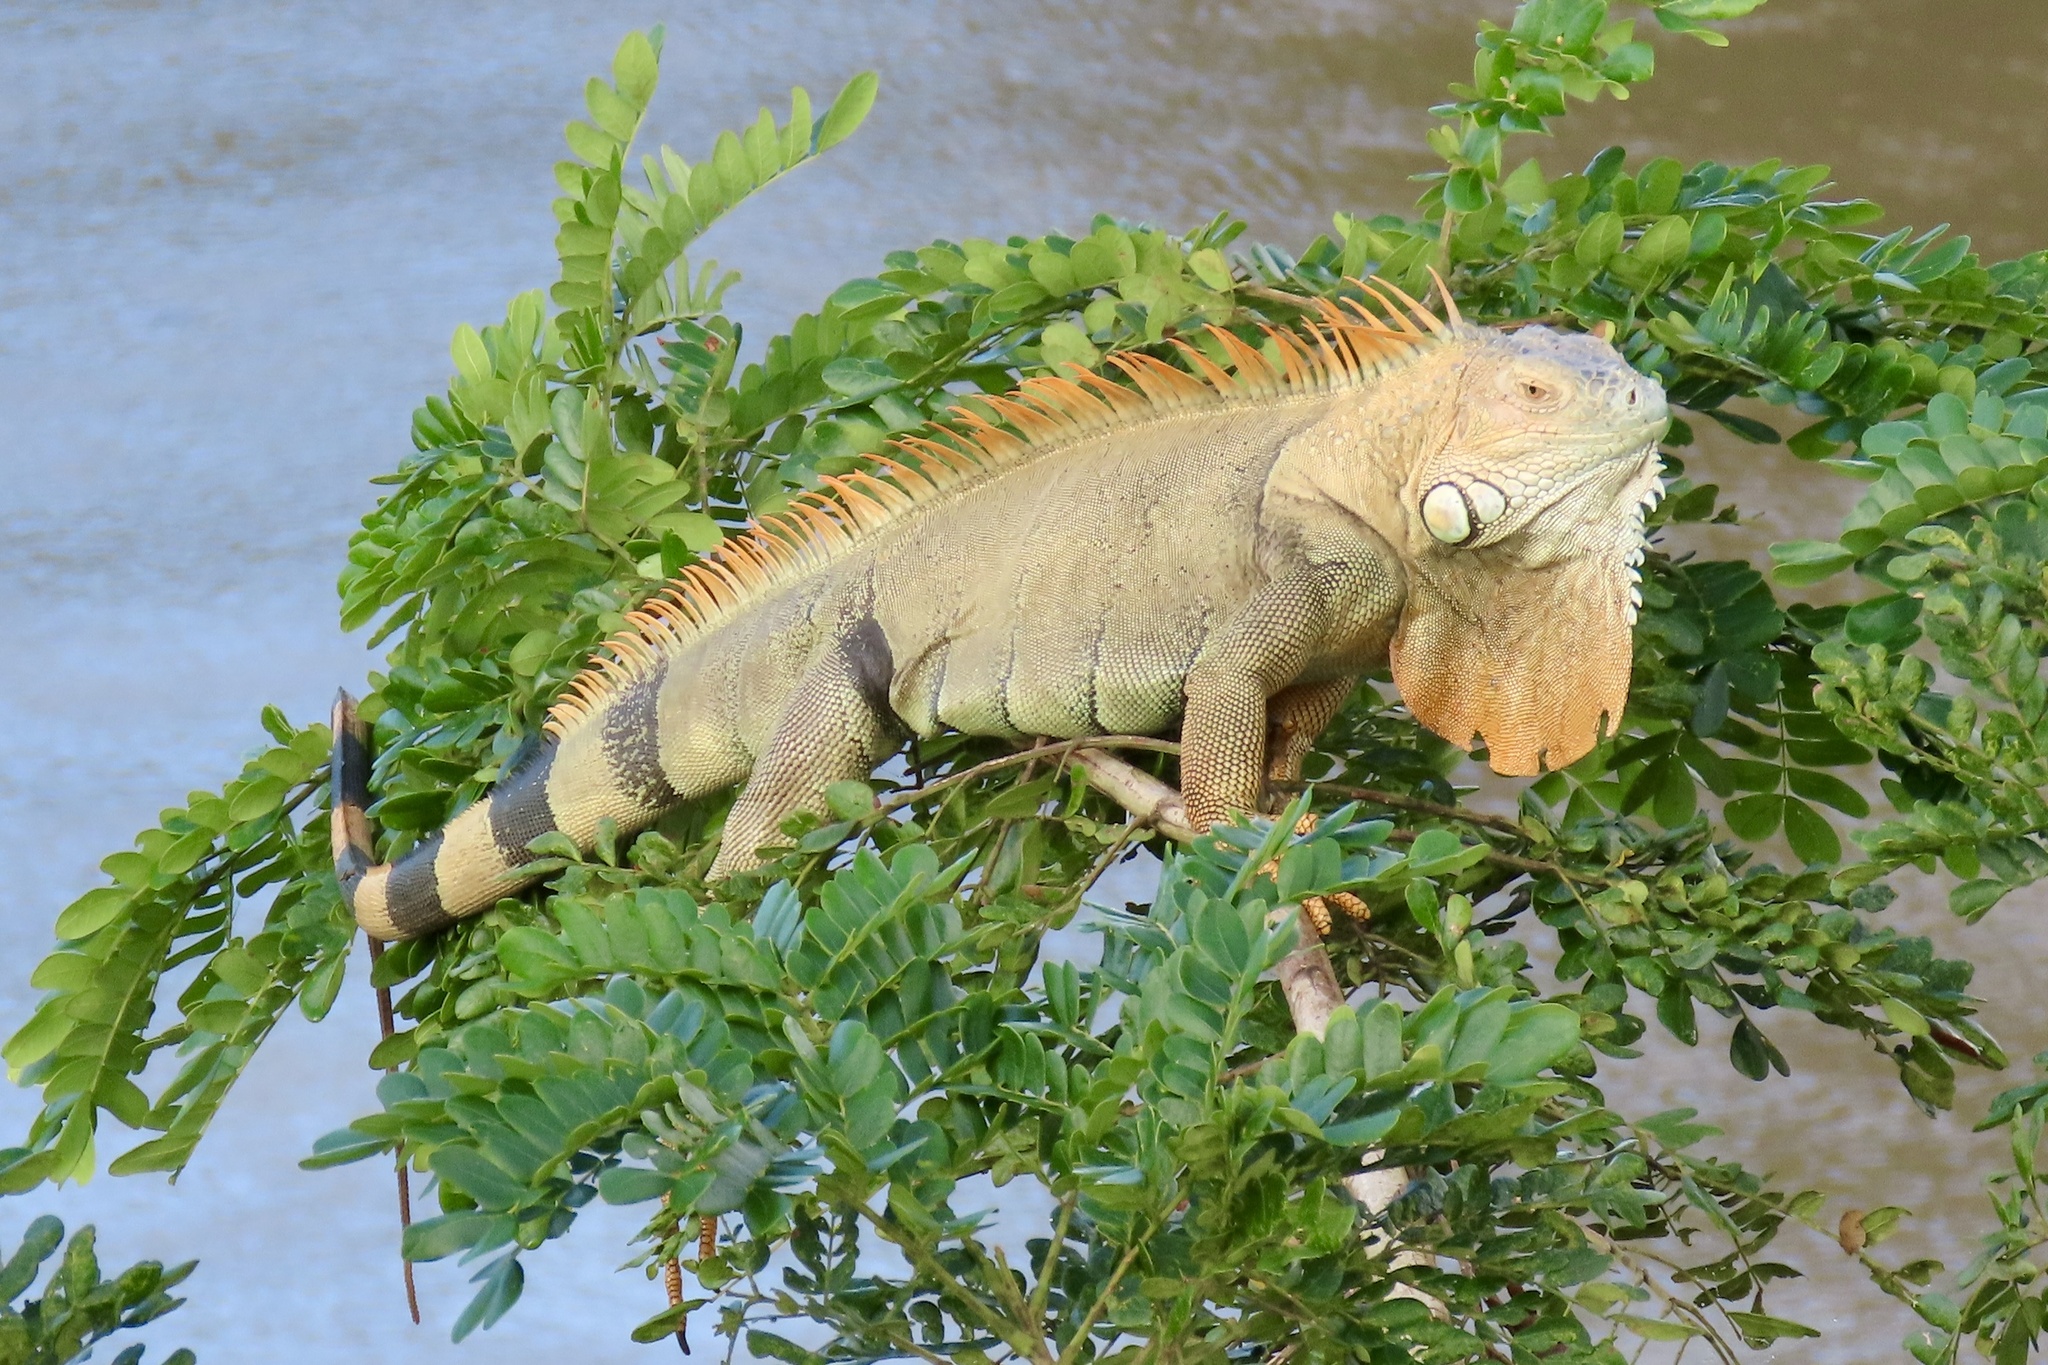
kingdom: Animalia
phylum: Chordata
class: Squamata
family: Iguanidae
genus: Iguana
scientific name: Iguana iguana
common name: Green iguana
